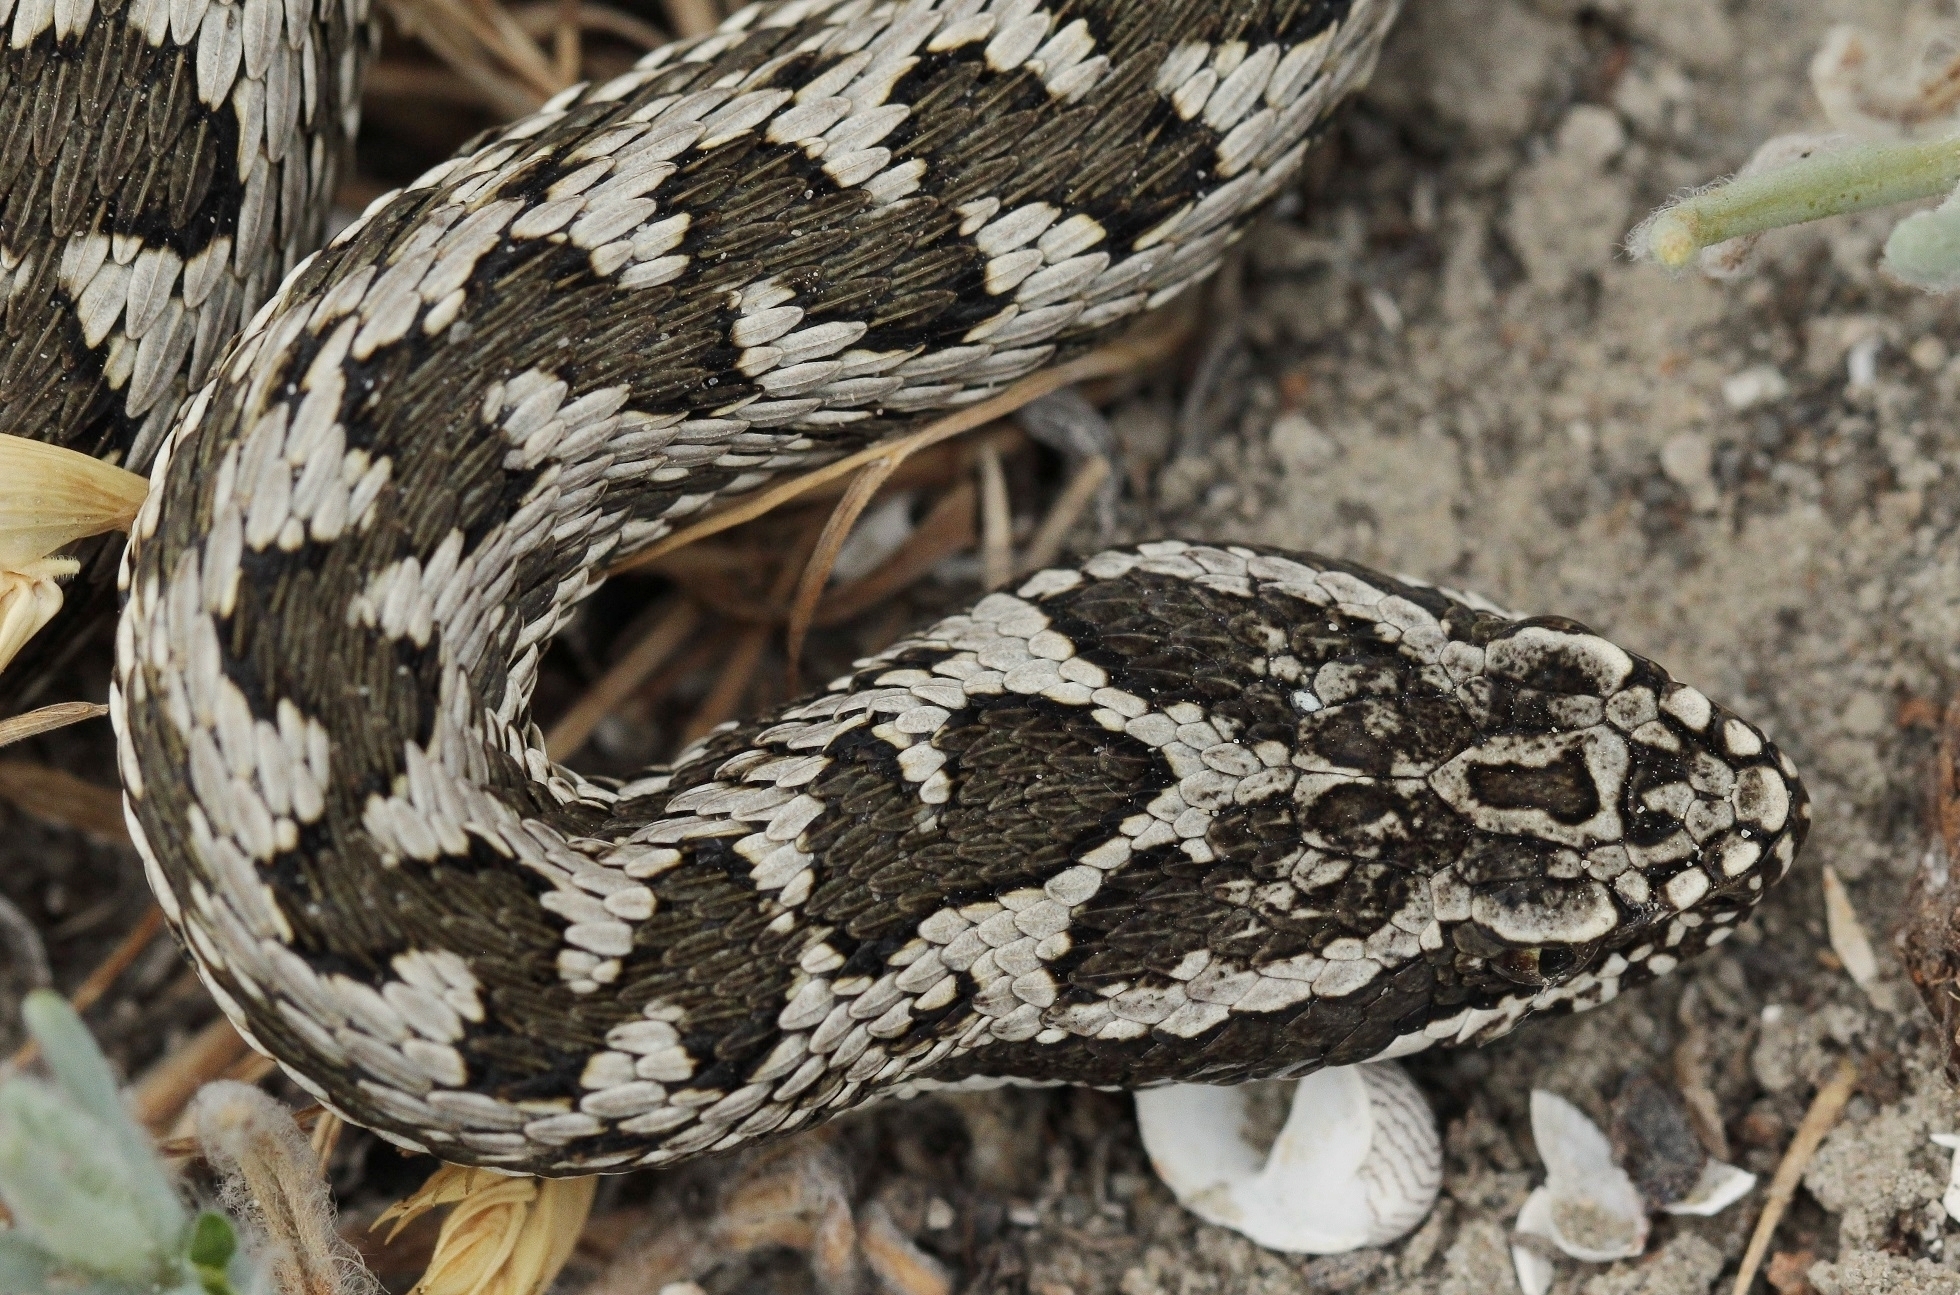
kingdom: Animalia
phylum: Chordata
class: Squamata
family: Viperidae
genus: Vipera
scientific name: Vipera renardi
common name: Eastern steppe viper
